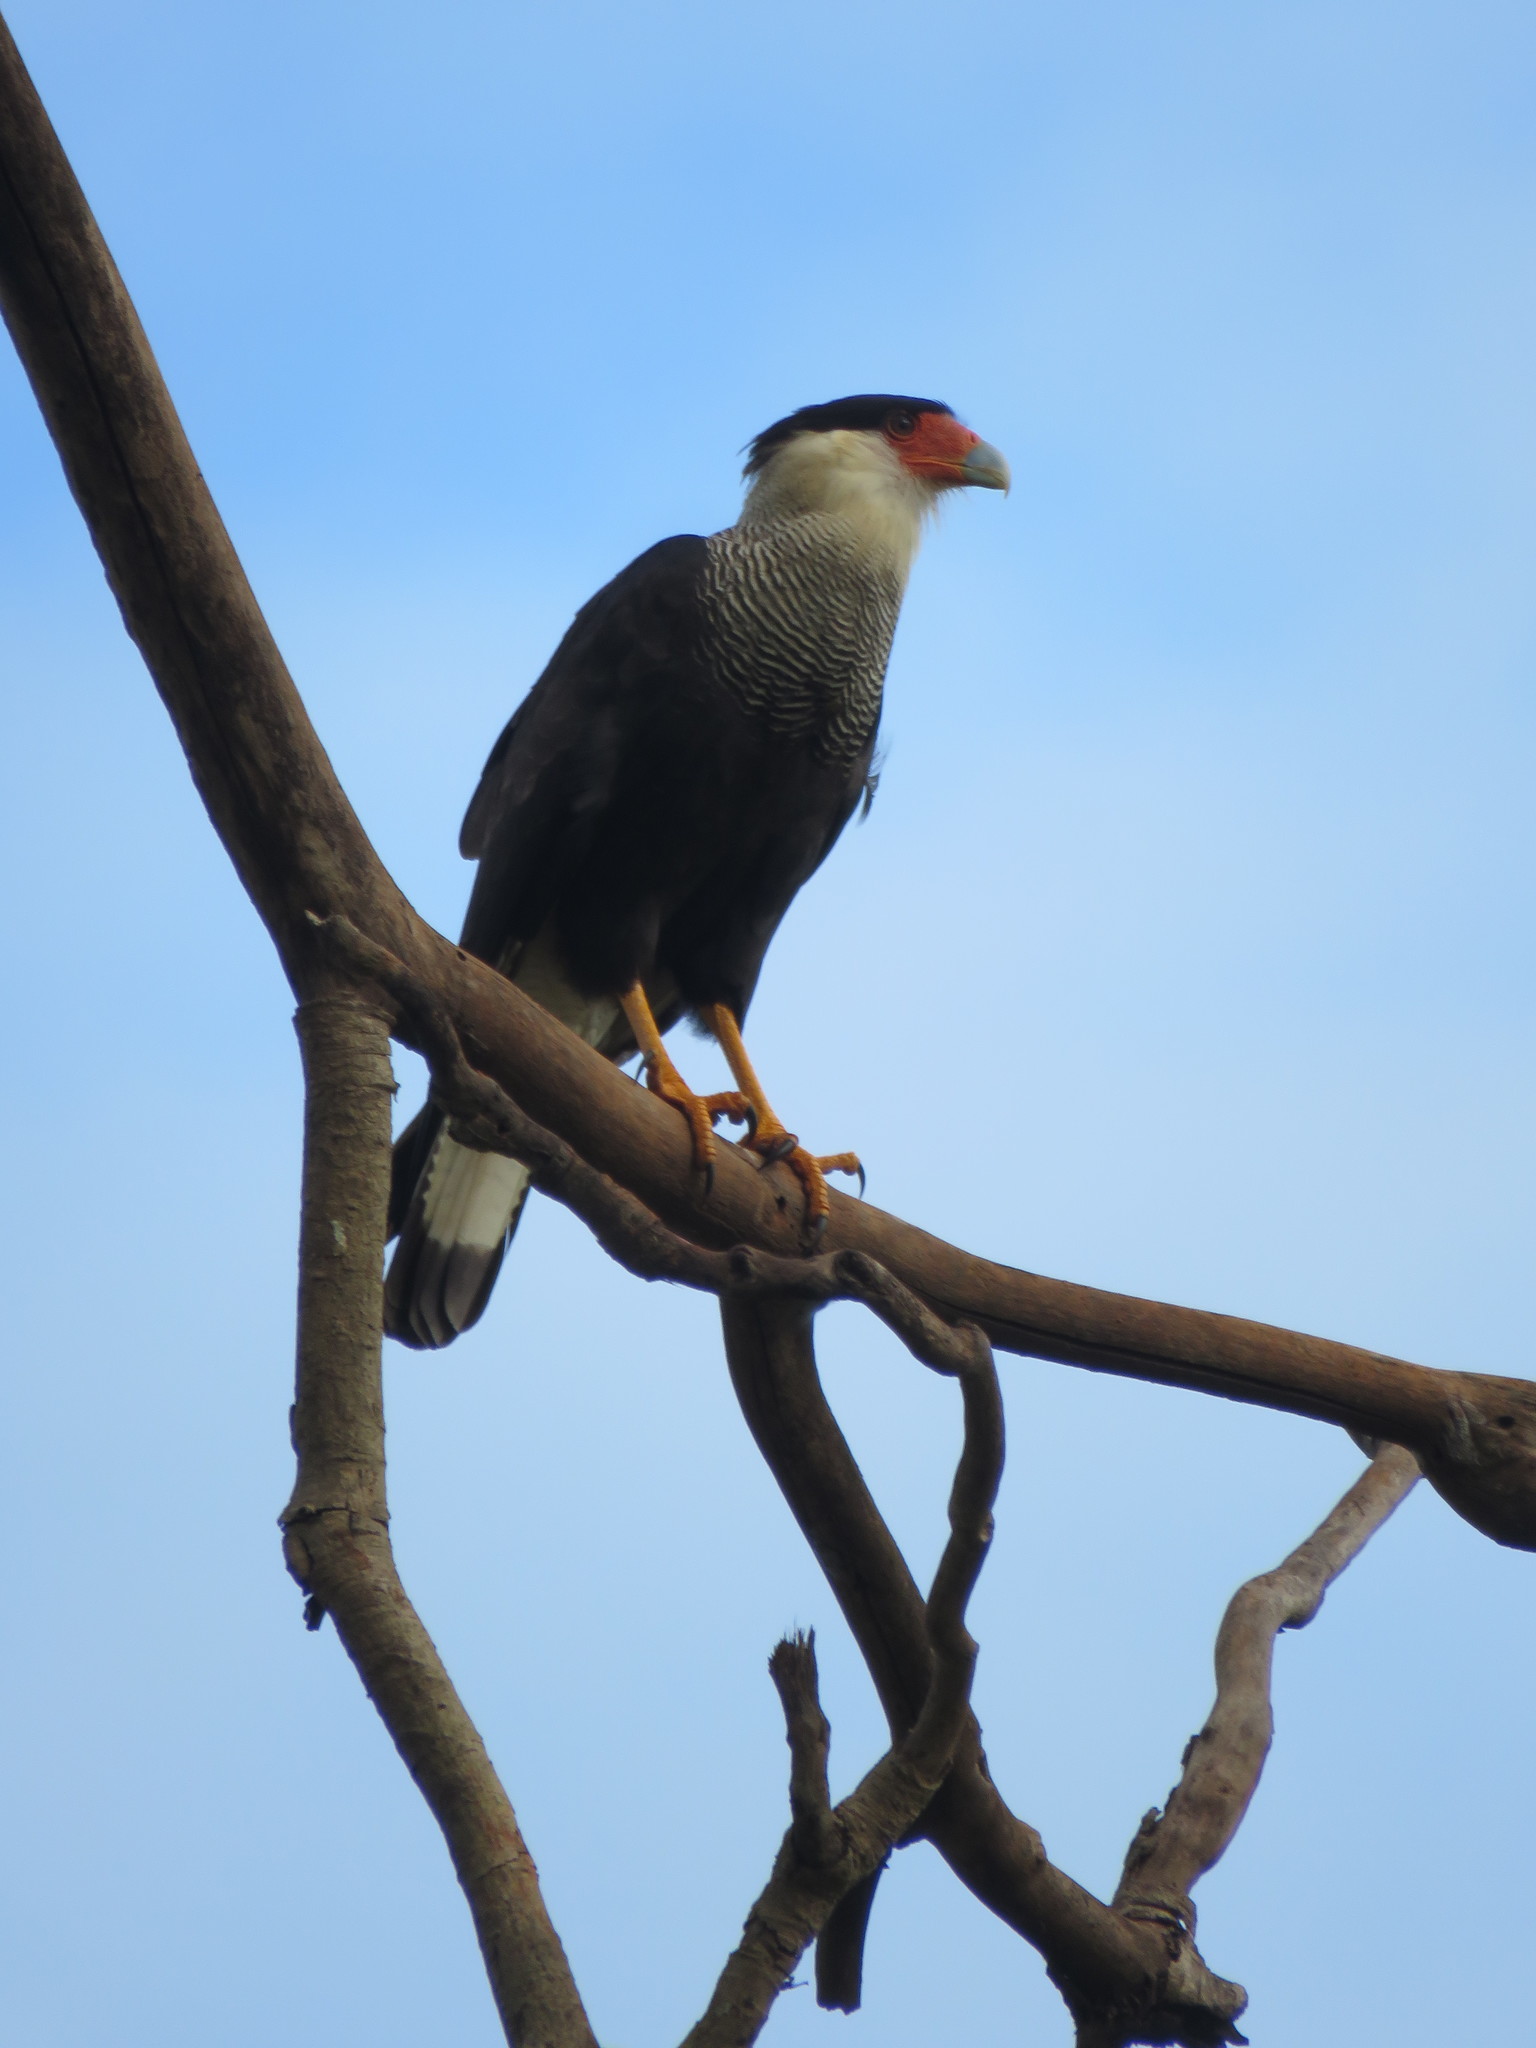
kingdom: Animalia
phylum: Chordata
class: Aves
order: Falconiformes
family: Falconidae
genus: Caracara
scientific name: Caracara plancus
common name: Southern caracara
